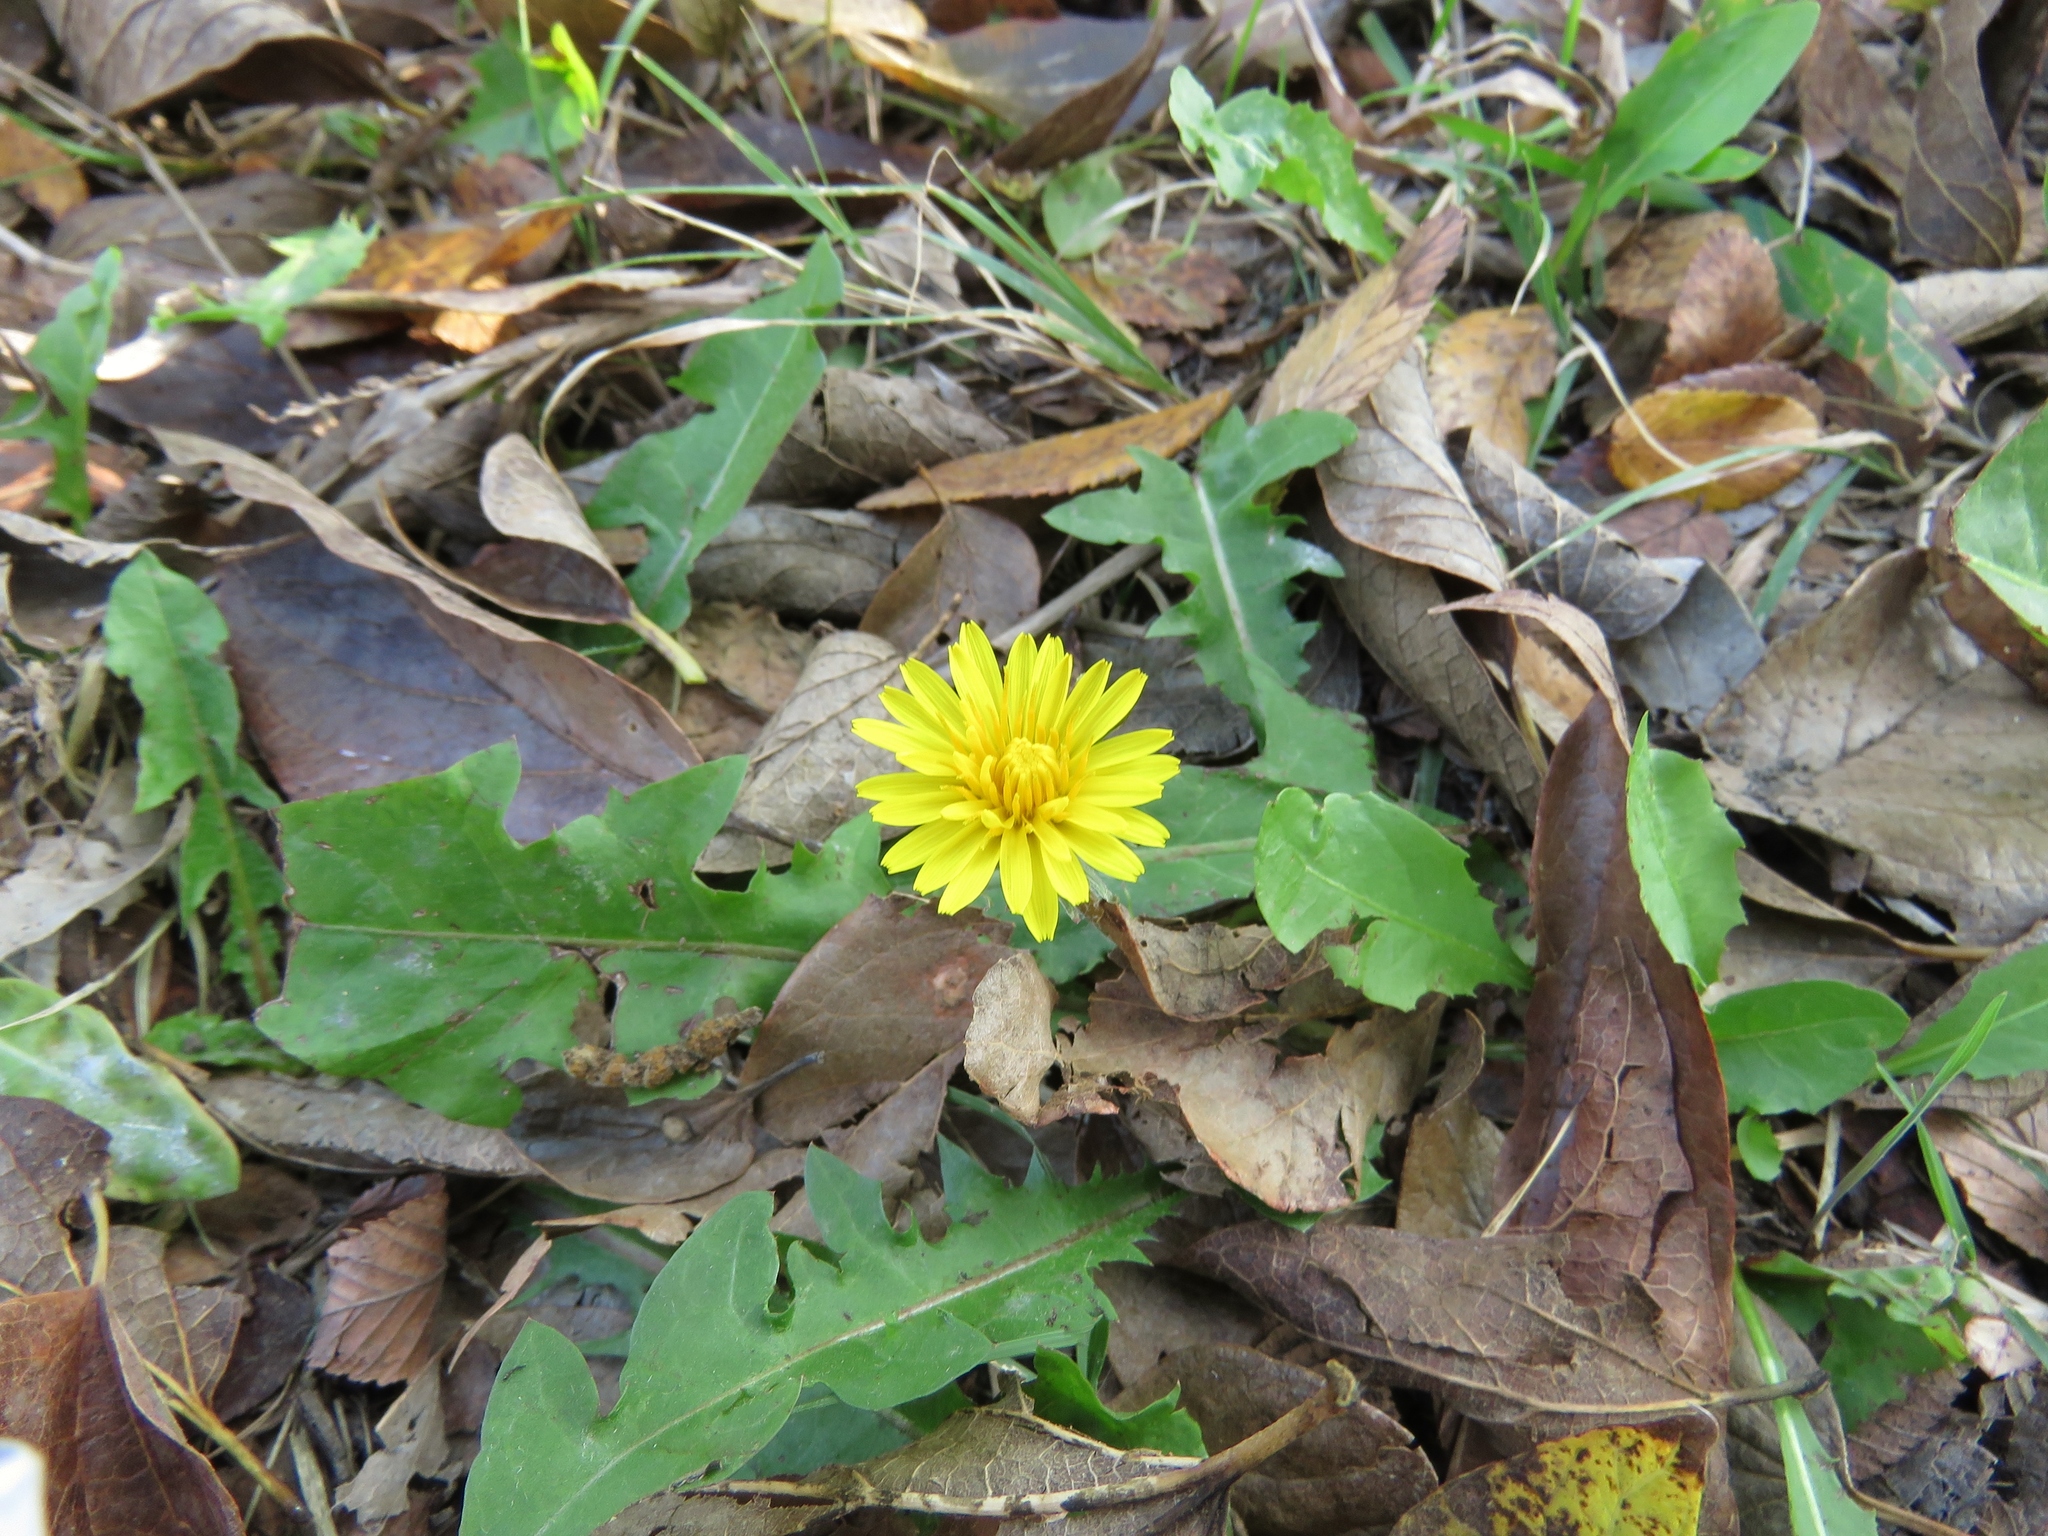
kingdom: Plantae
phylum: Tracheophyta
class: Magnoliopsida
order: Asterales
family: Asteraceae
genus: Taraxacum
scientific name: Taraxacum officinale
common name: Common dandelion
